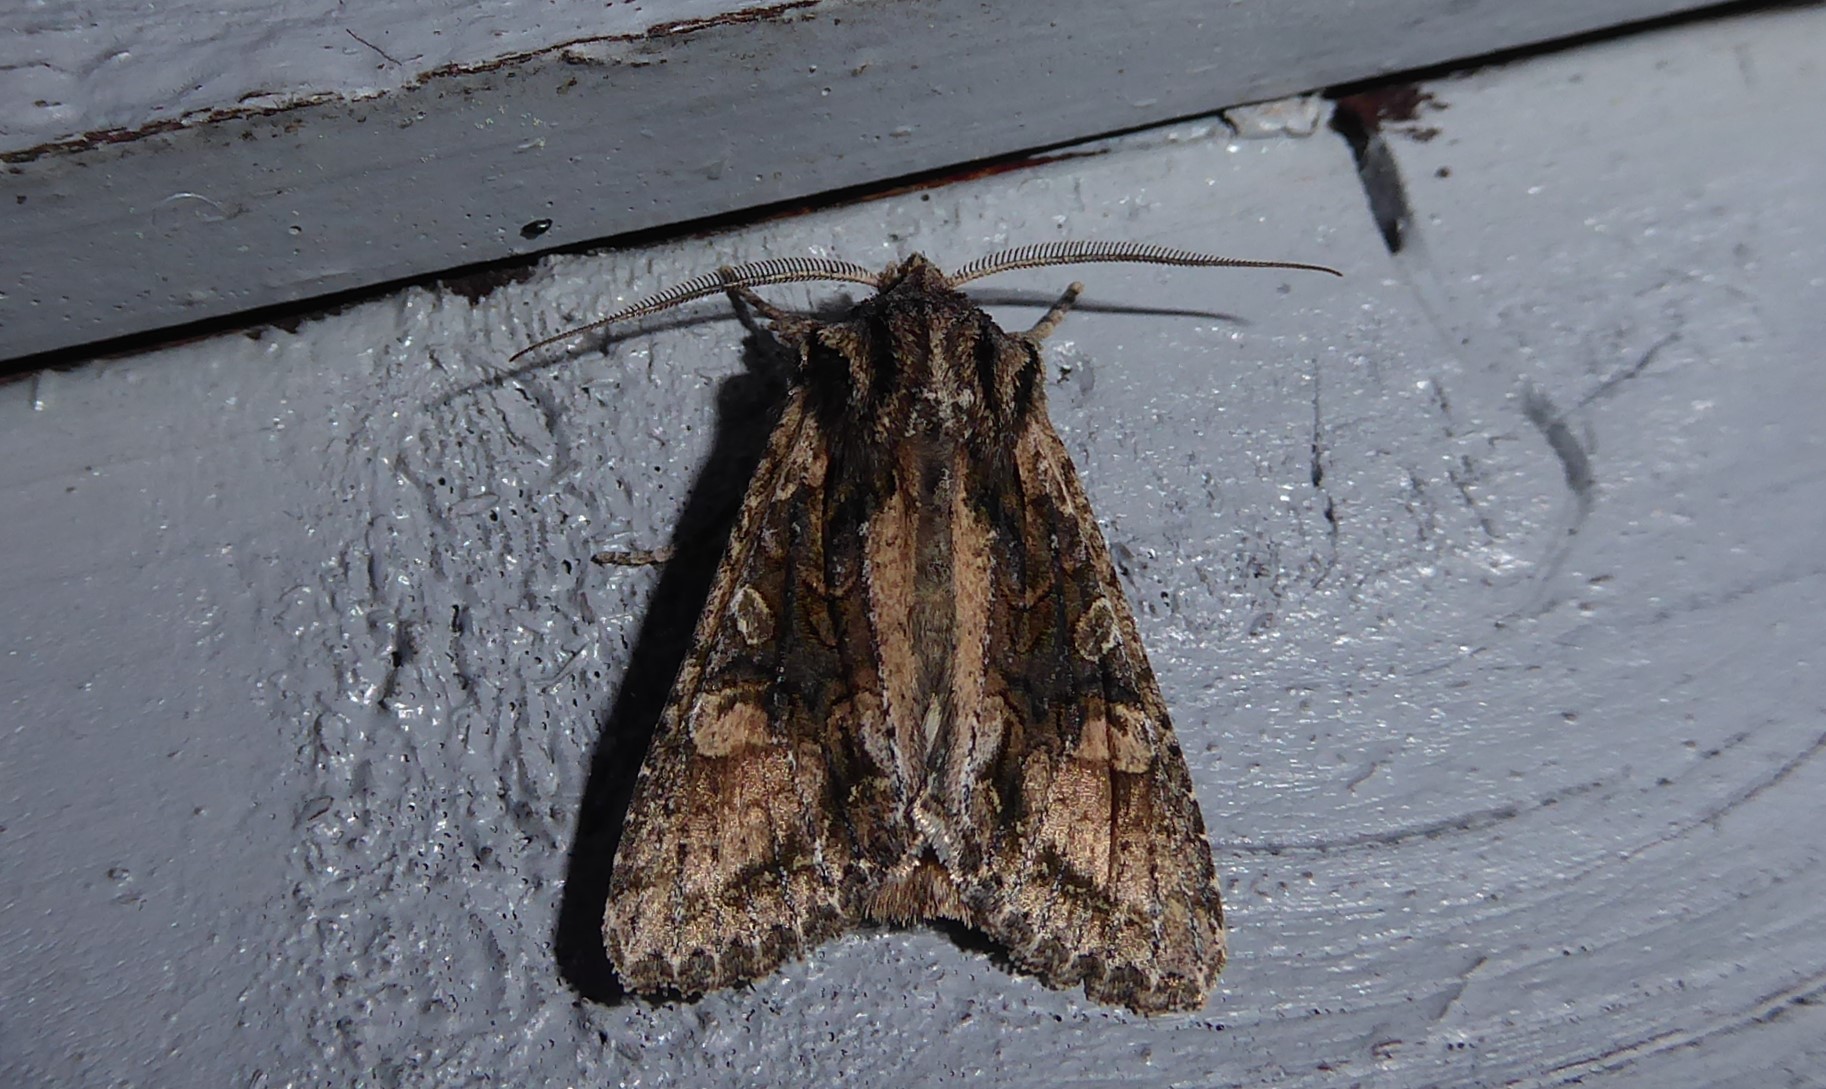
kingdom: Animalia
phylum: Arthropoda
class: Insecta
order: Lepidoptera
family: Noctuidae
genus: Ichneutica
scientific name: Ichneutica mutans
